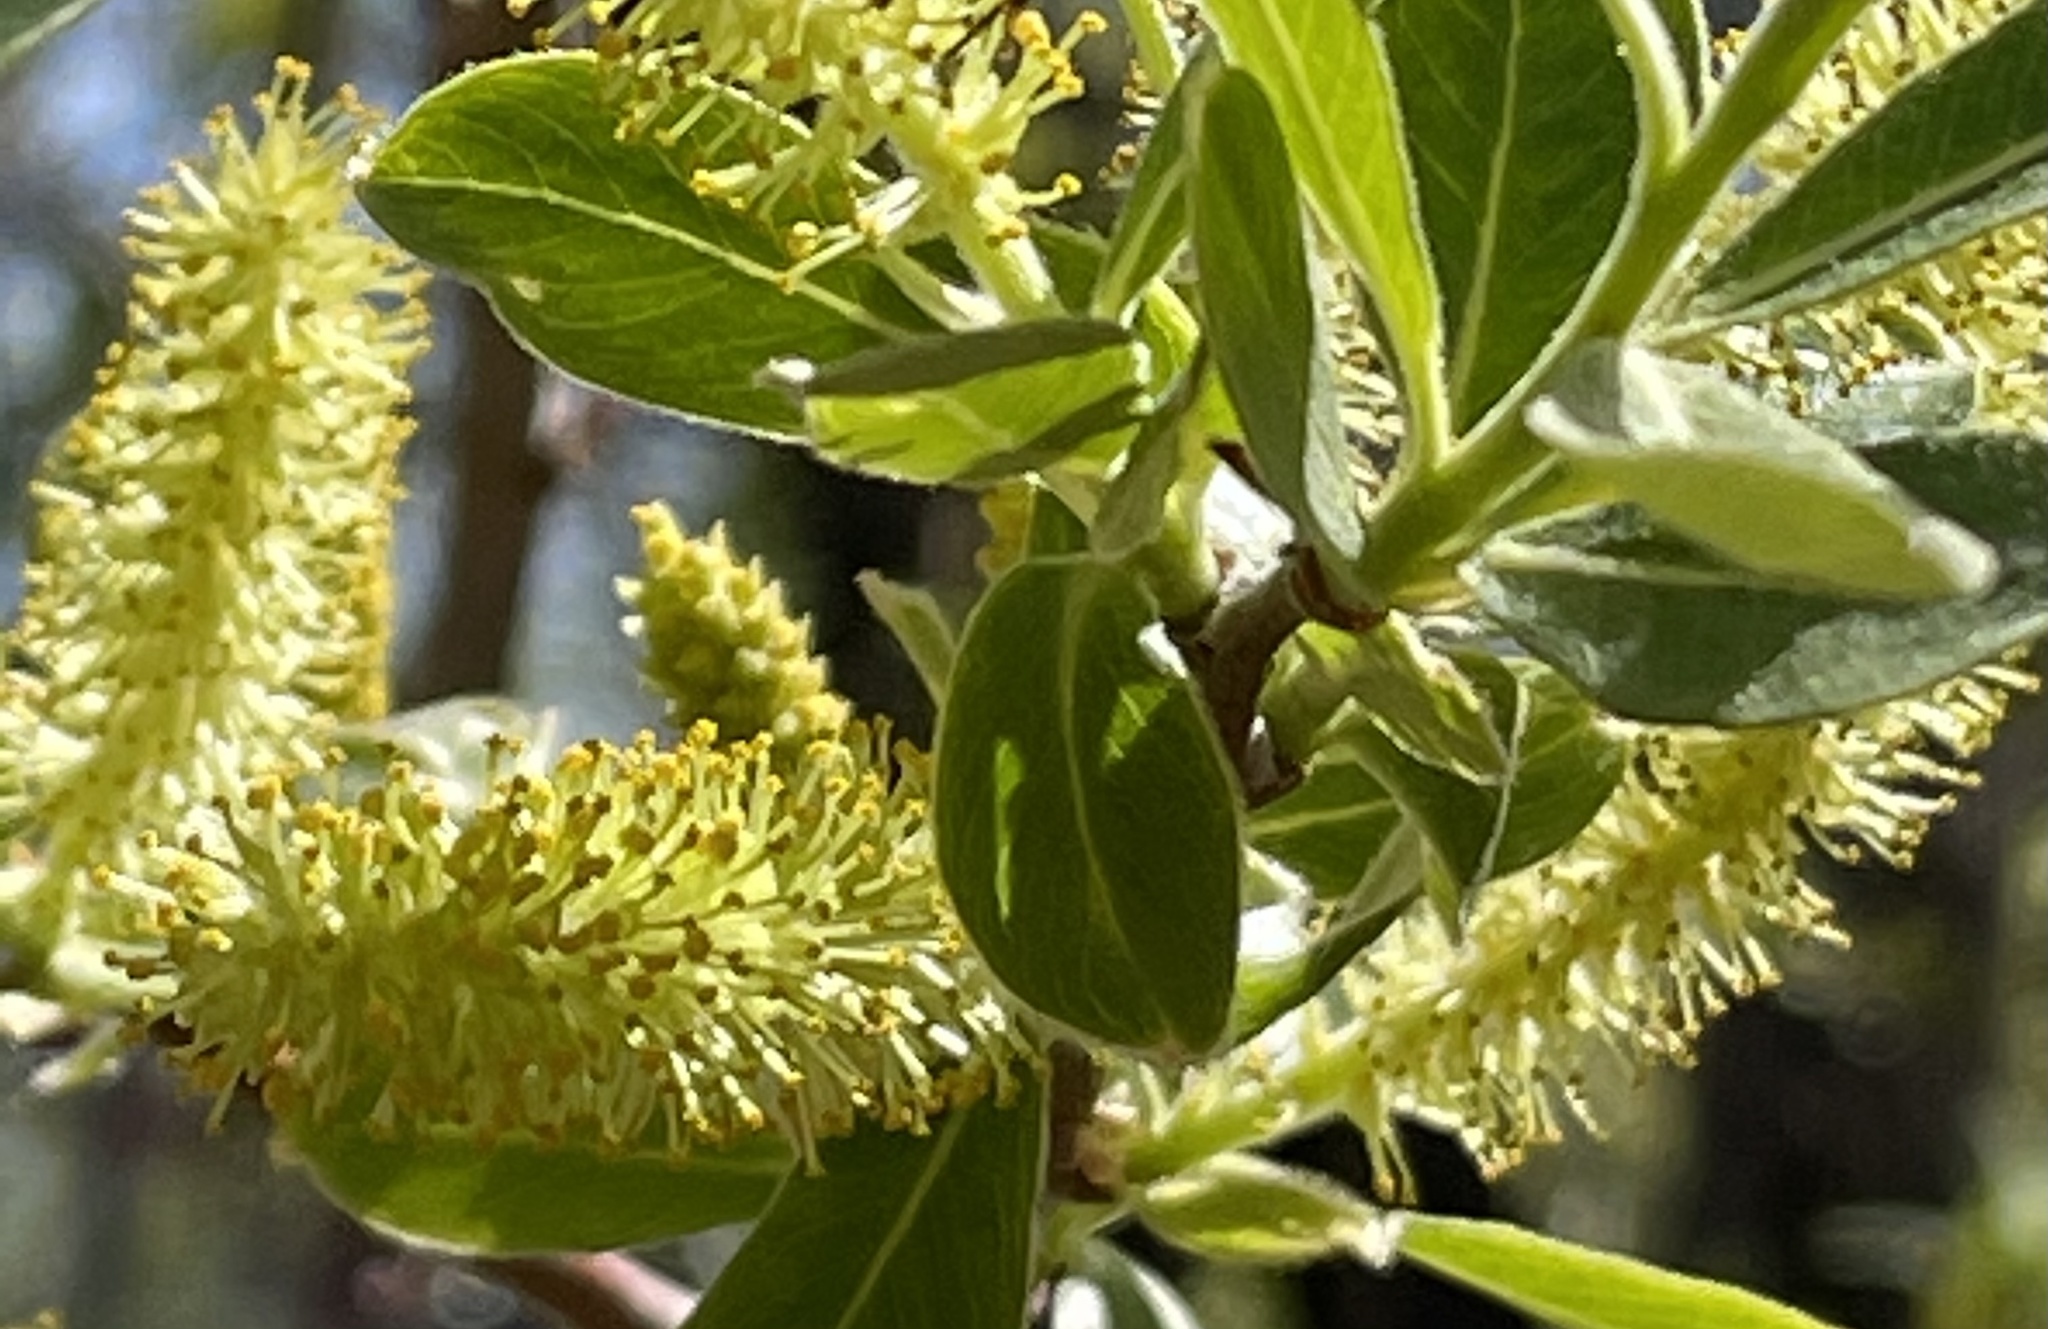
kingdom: Plantae
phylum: Tracheophyta
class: Magnoliopsida
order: Malpighiales
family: Salicaceae
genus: Salix
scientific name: Salix lasiolepis
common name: Arroyo willow
